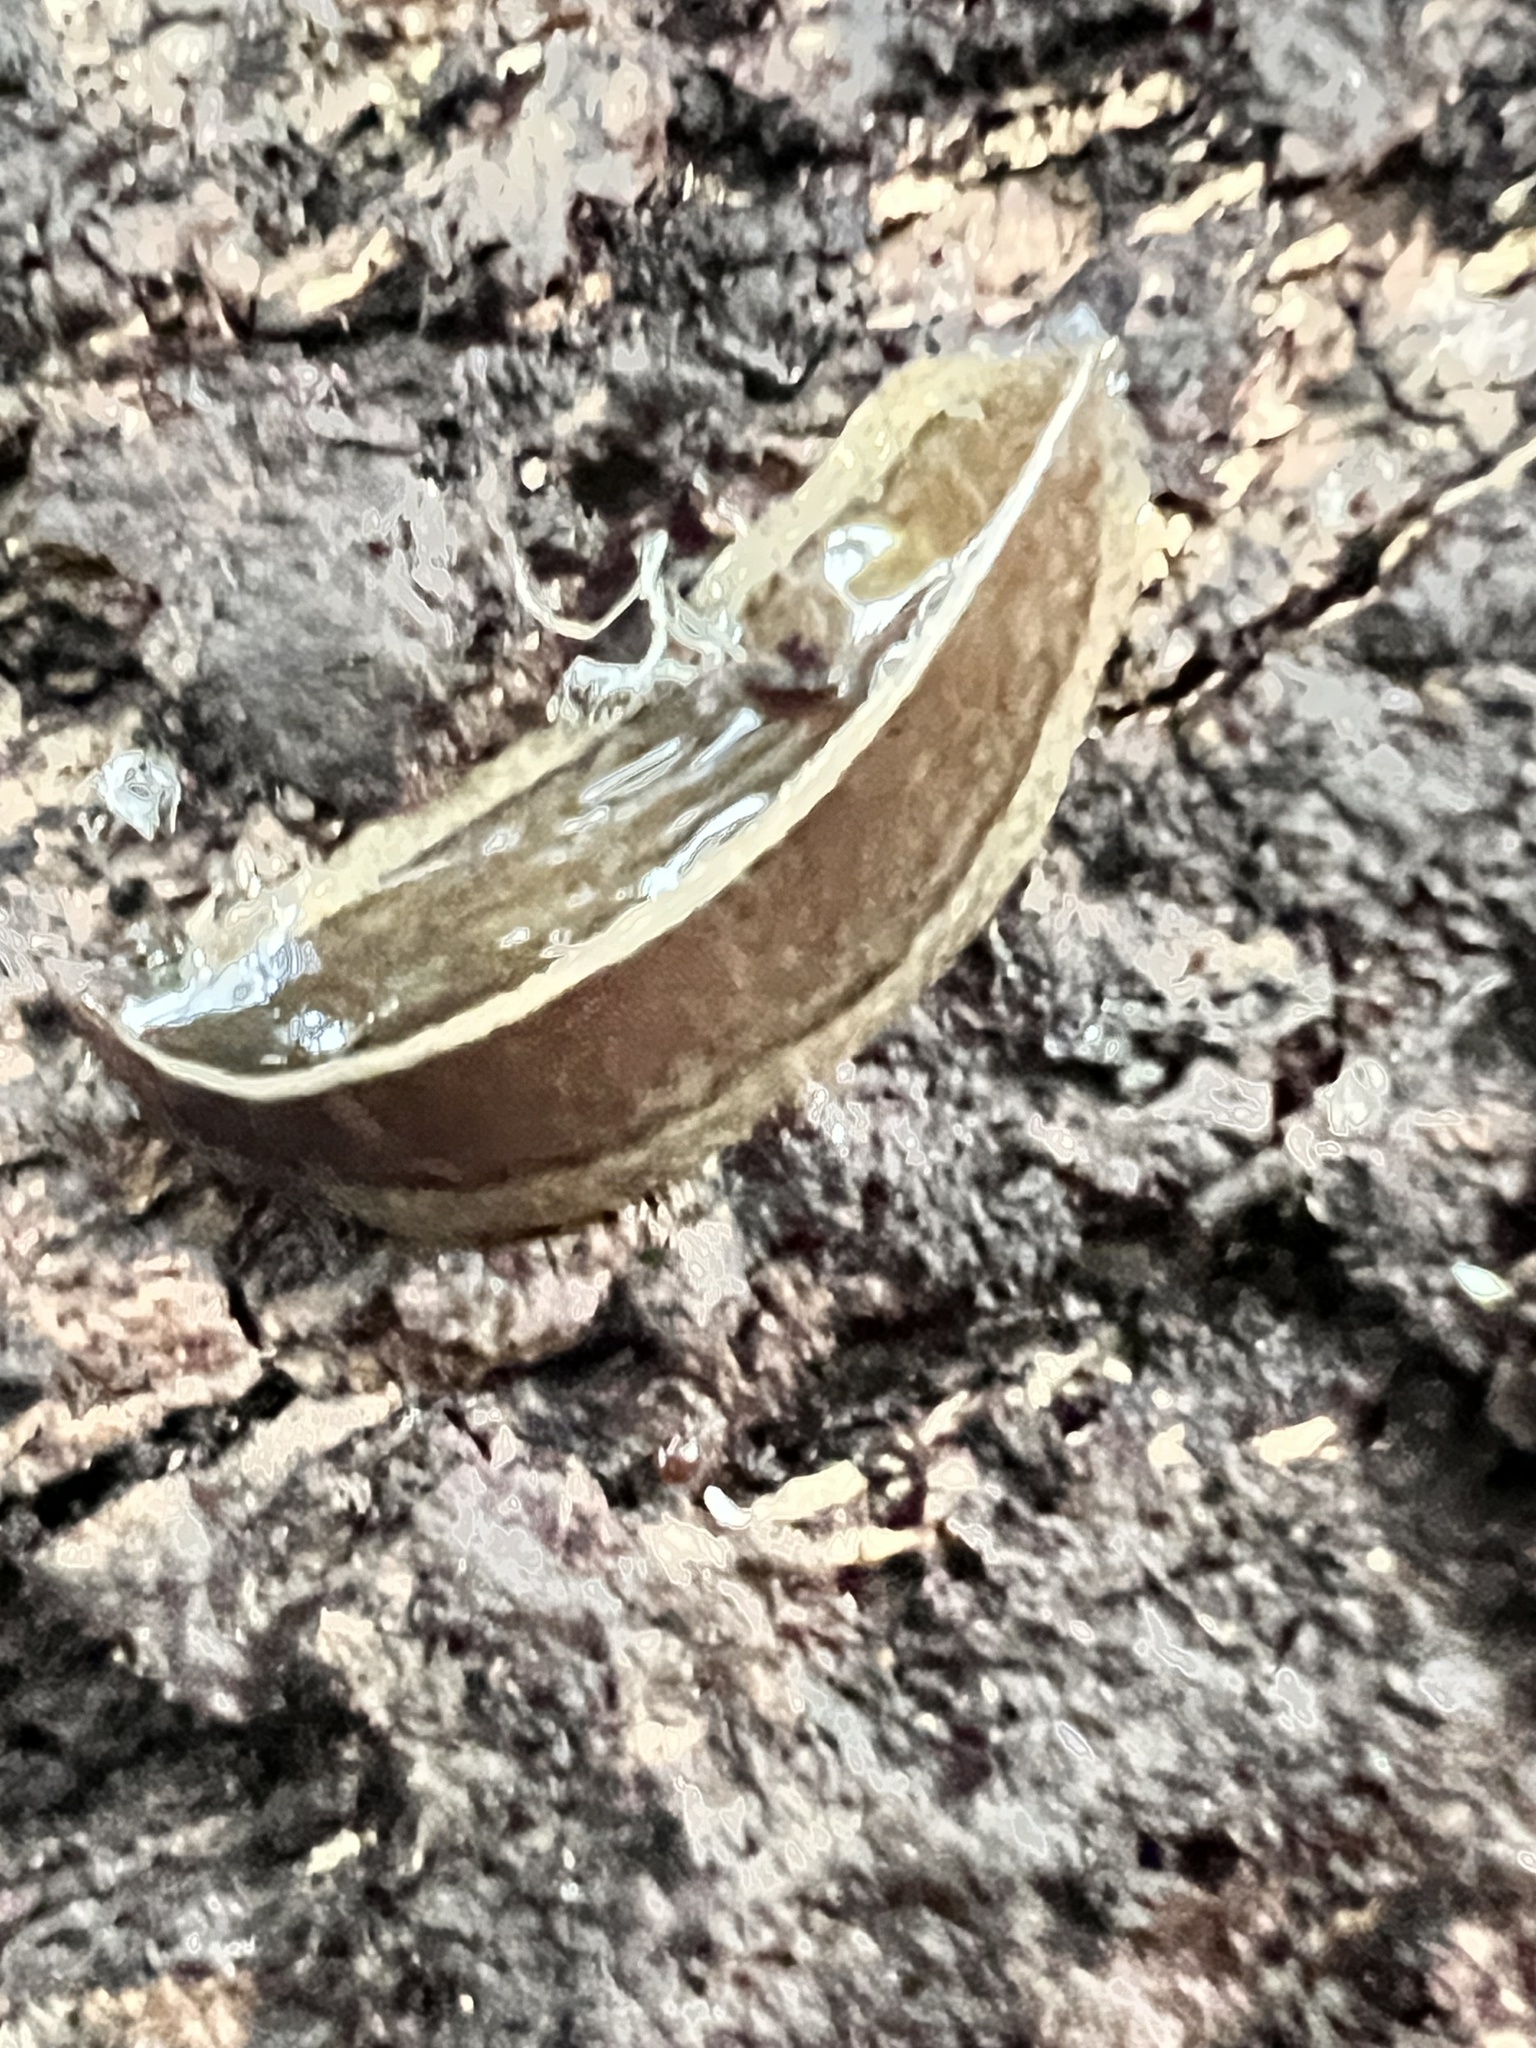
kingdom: Animalia
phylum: Platyhelminthes
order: Tricladida
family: Geoplanidae
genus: Newzealandia
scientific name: Newzealandia graffii
